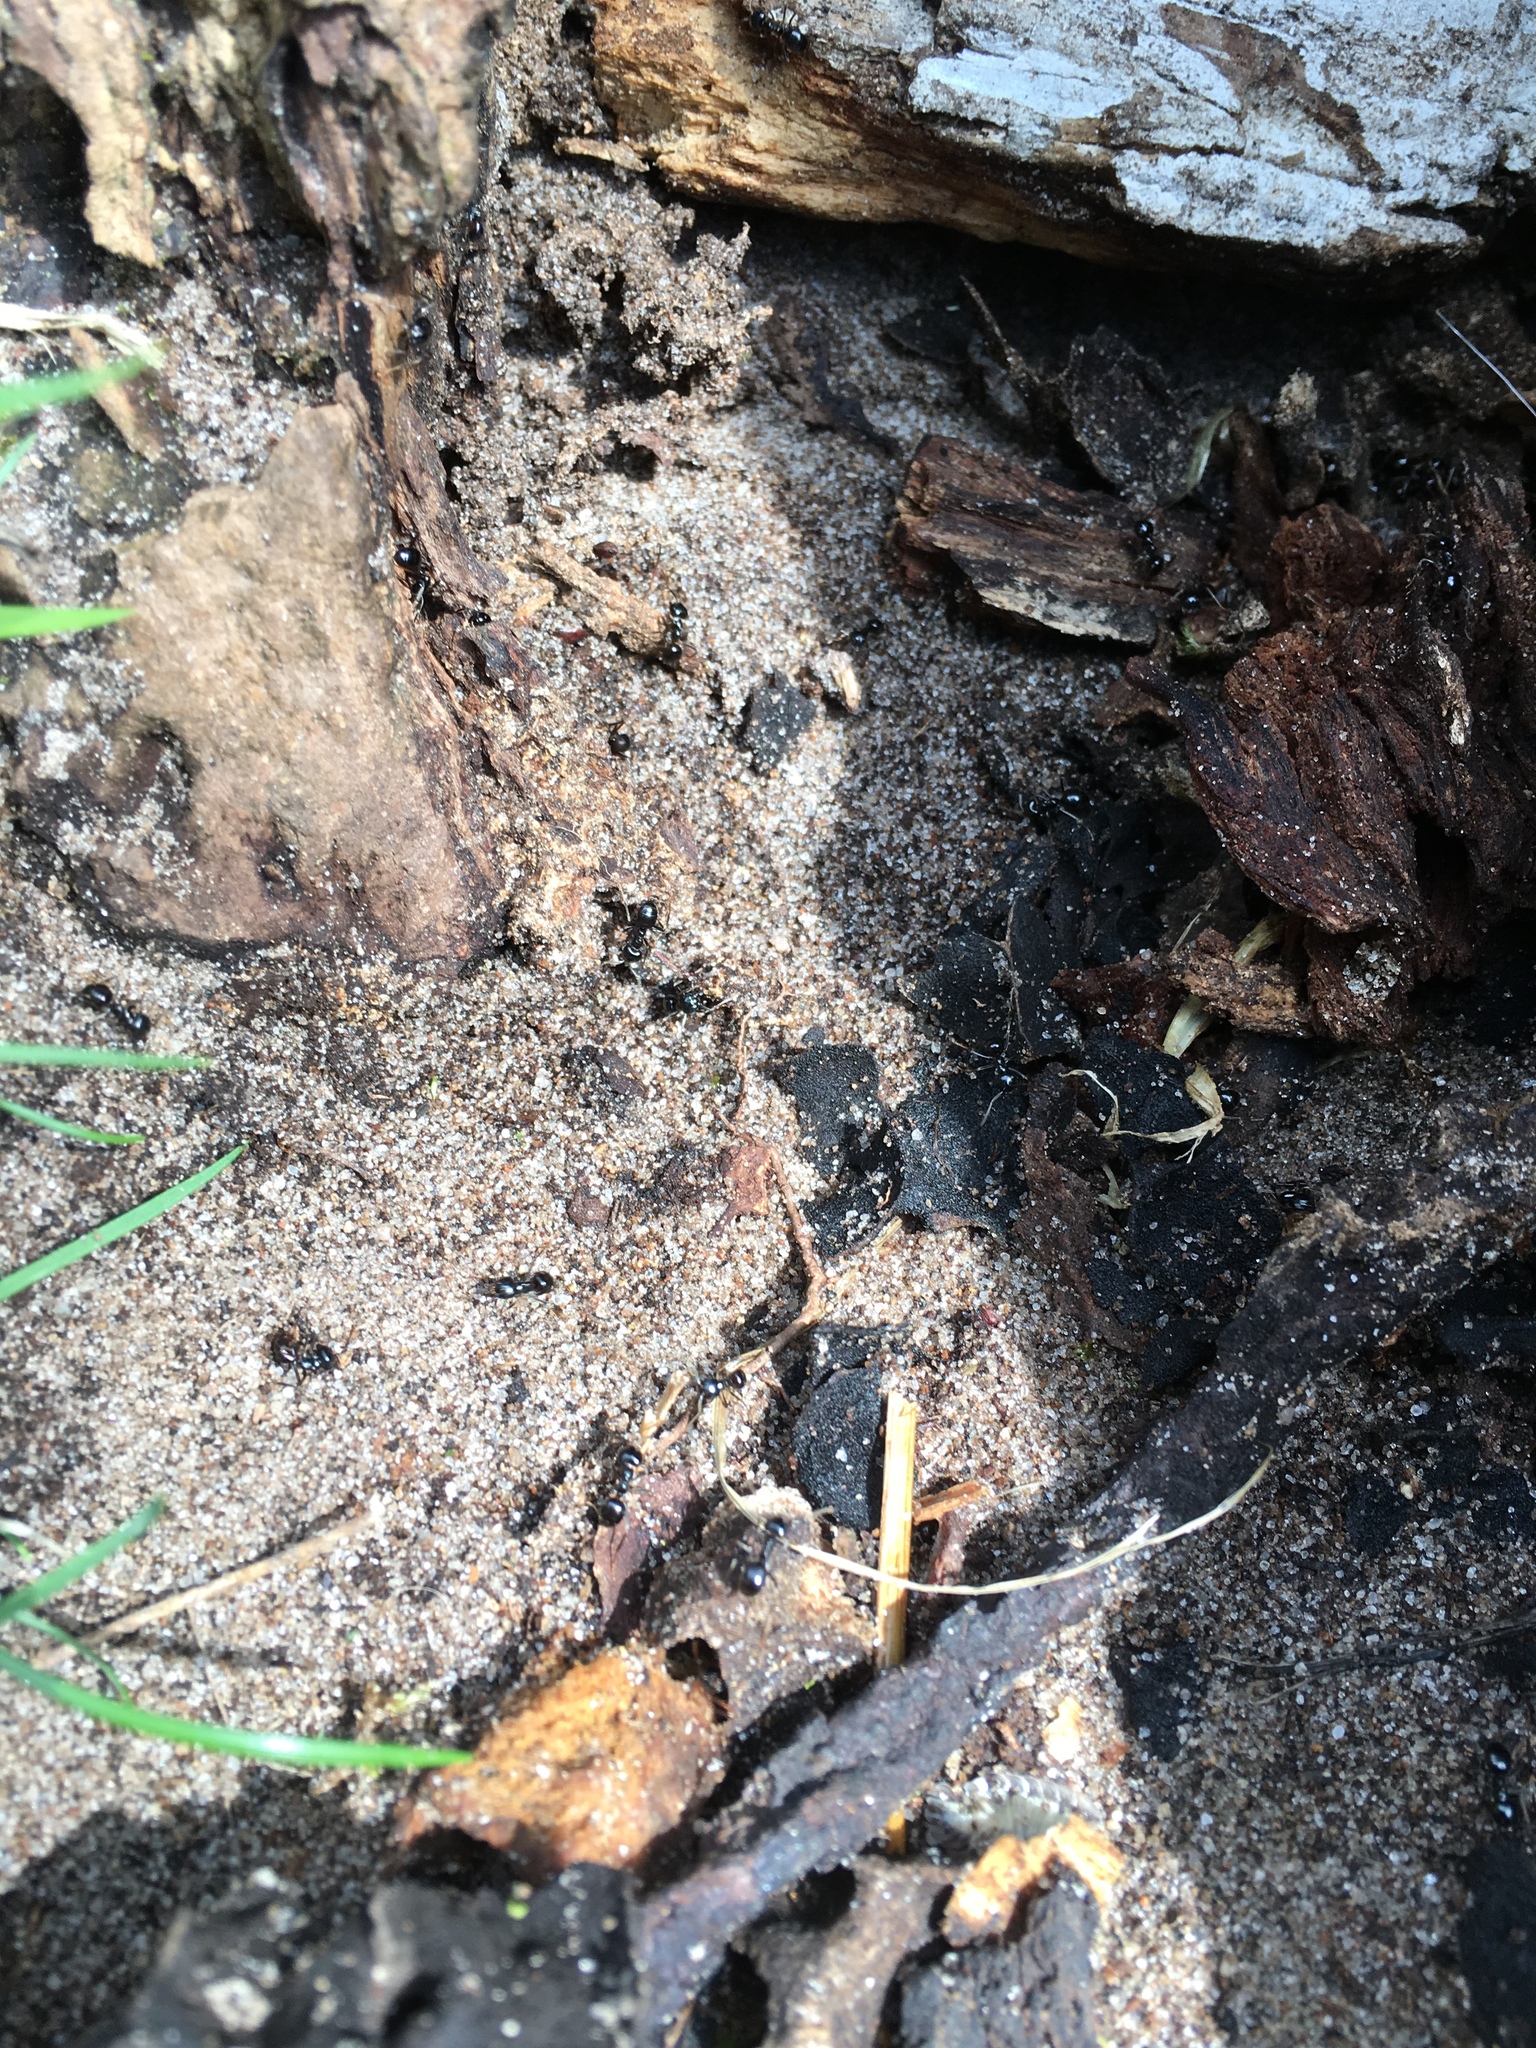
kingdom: Animalia
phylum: Arthropoda
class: Insecta
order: Hymenoptera
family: Formicidae
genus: Lasius
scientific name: Lasius fuliginosus
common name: Jet ant
